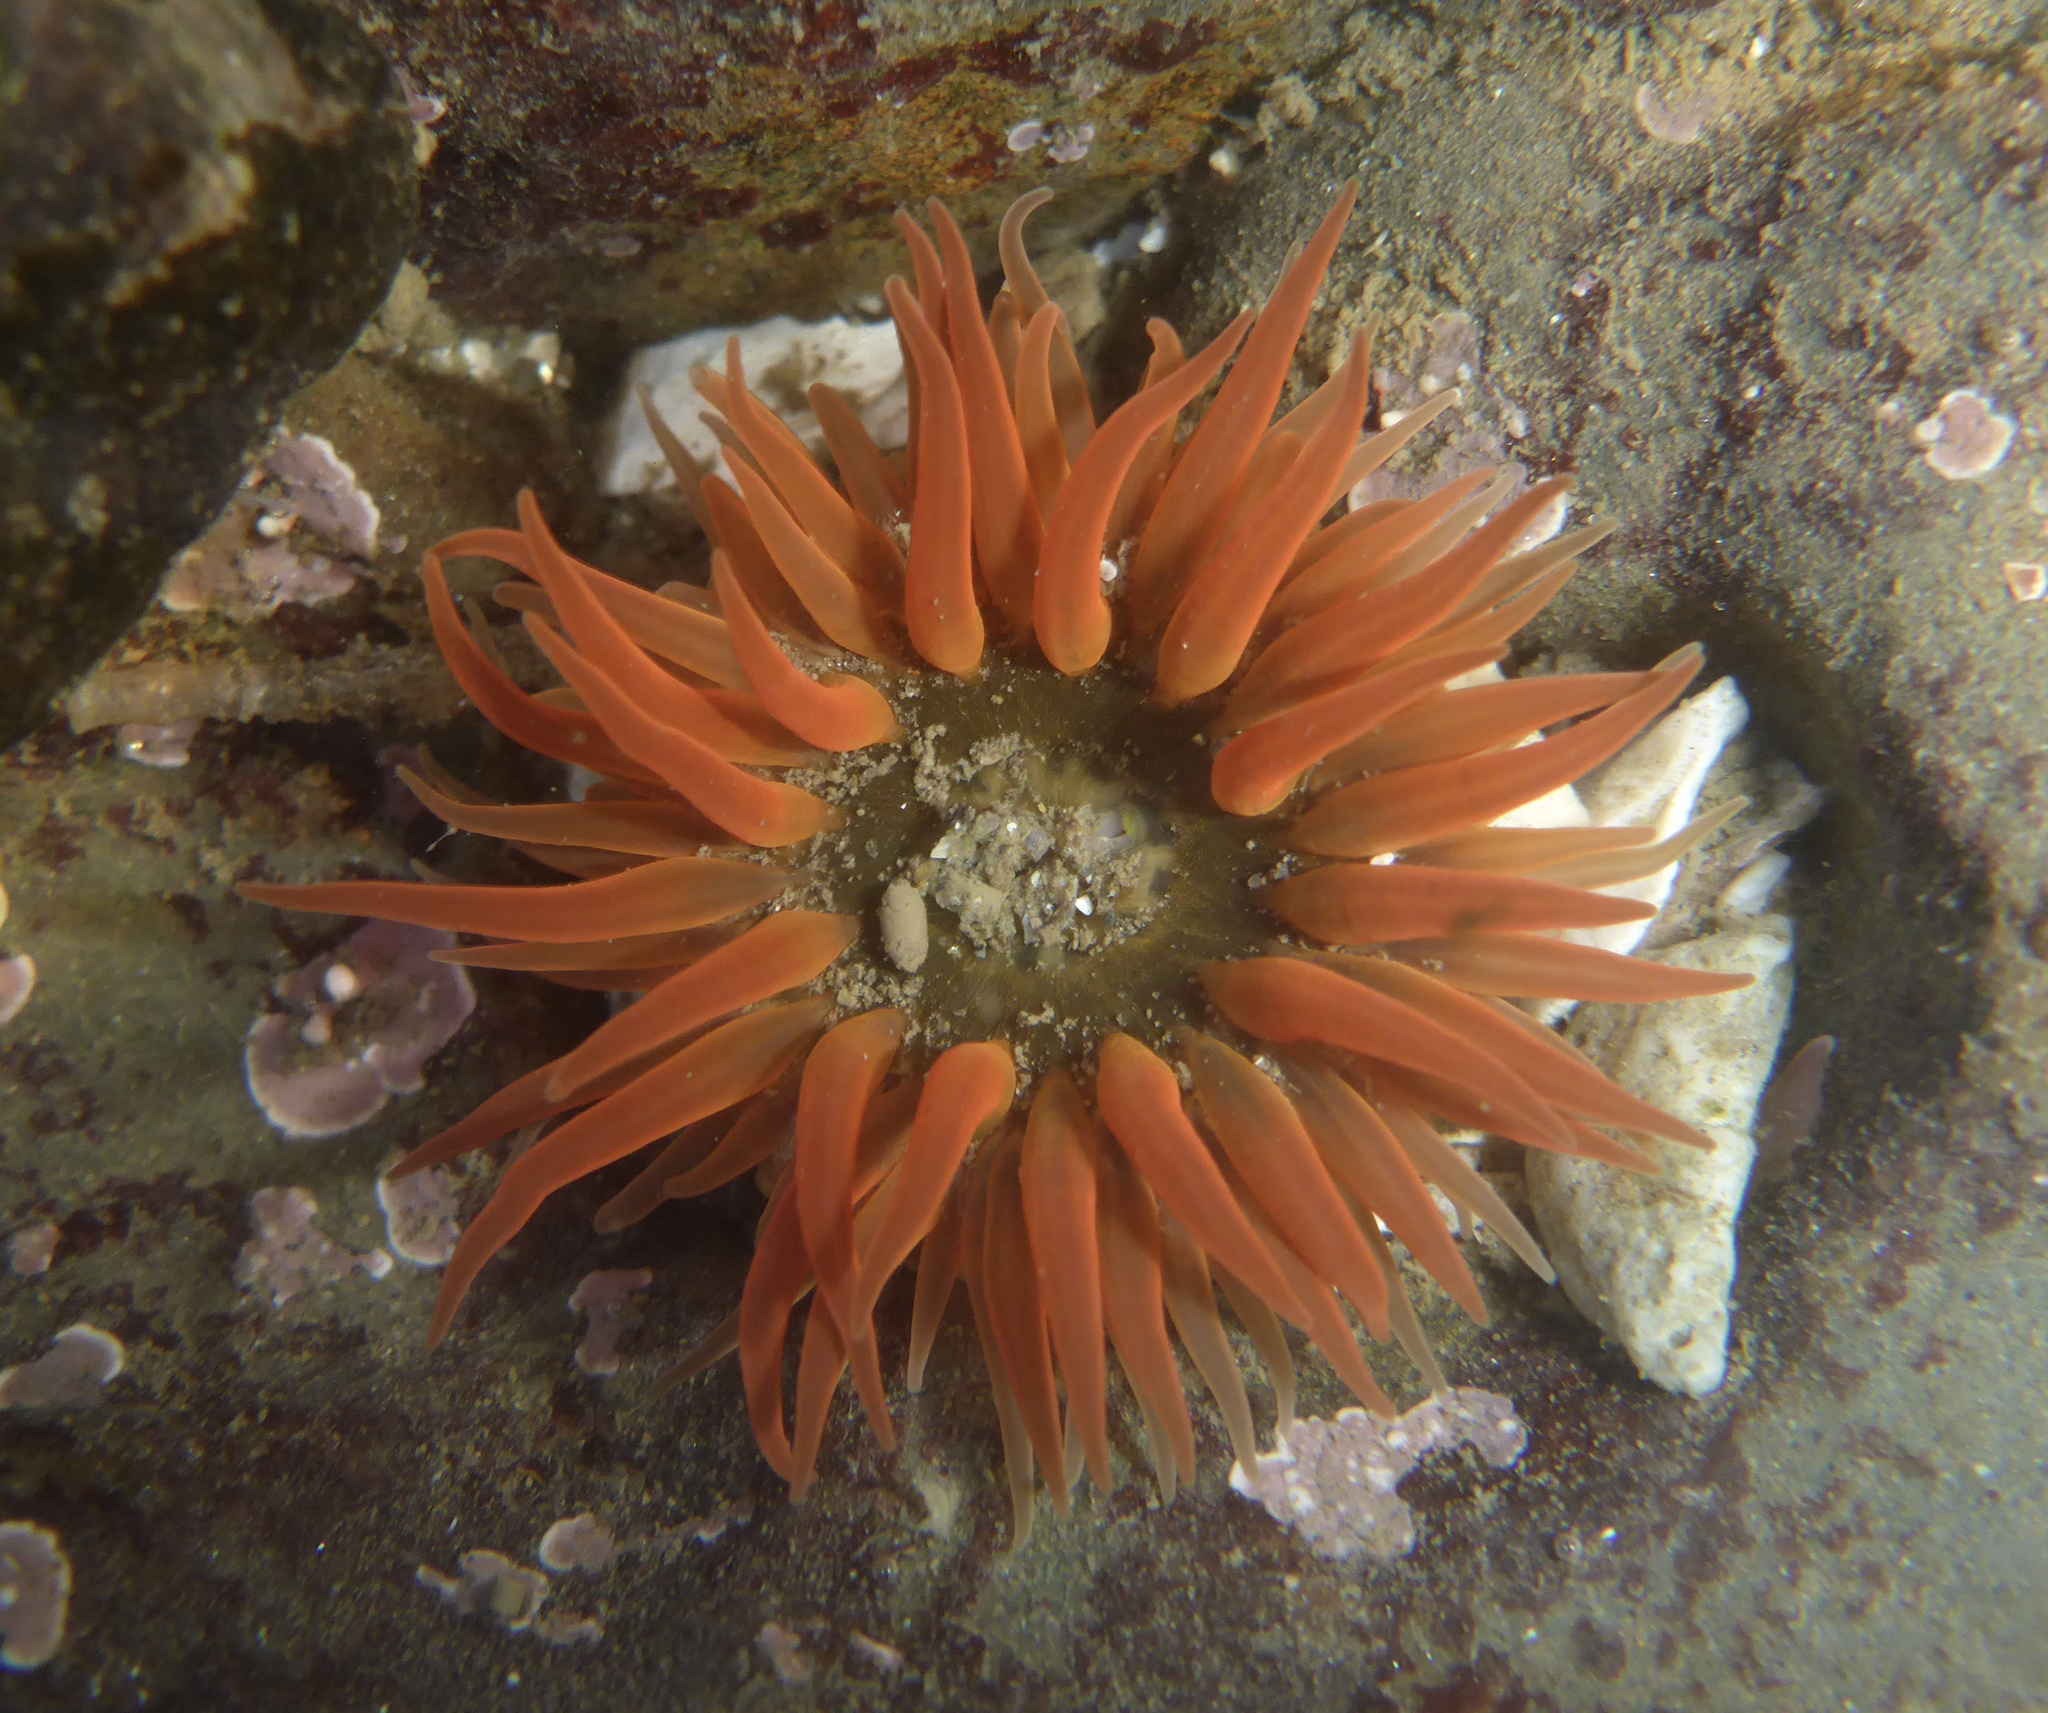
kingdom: Animalia
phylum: Cnidaria
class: Anthozoa
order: Actiniaria
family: Actiniidae
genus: Anthopleura
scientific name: Anthopleura artemisia
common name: Buried sea anemone
